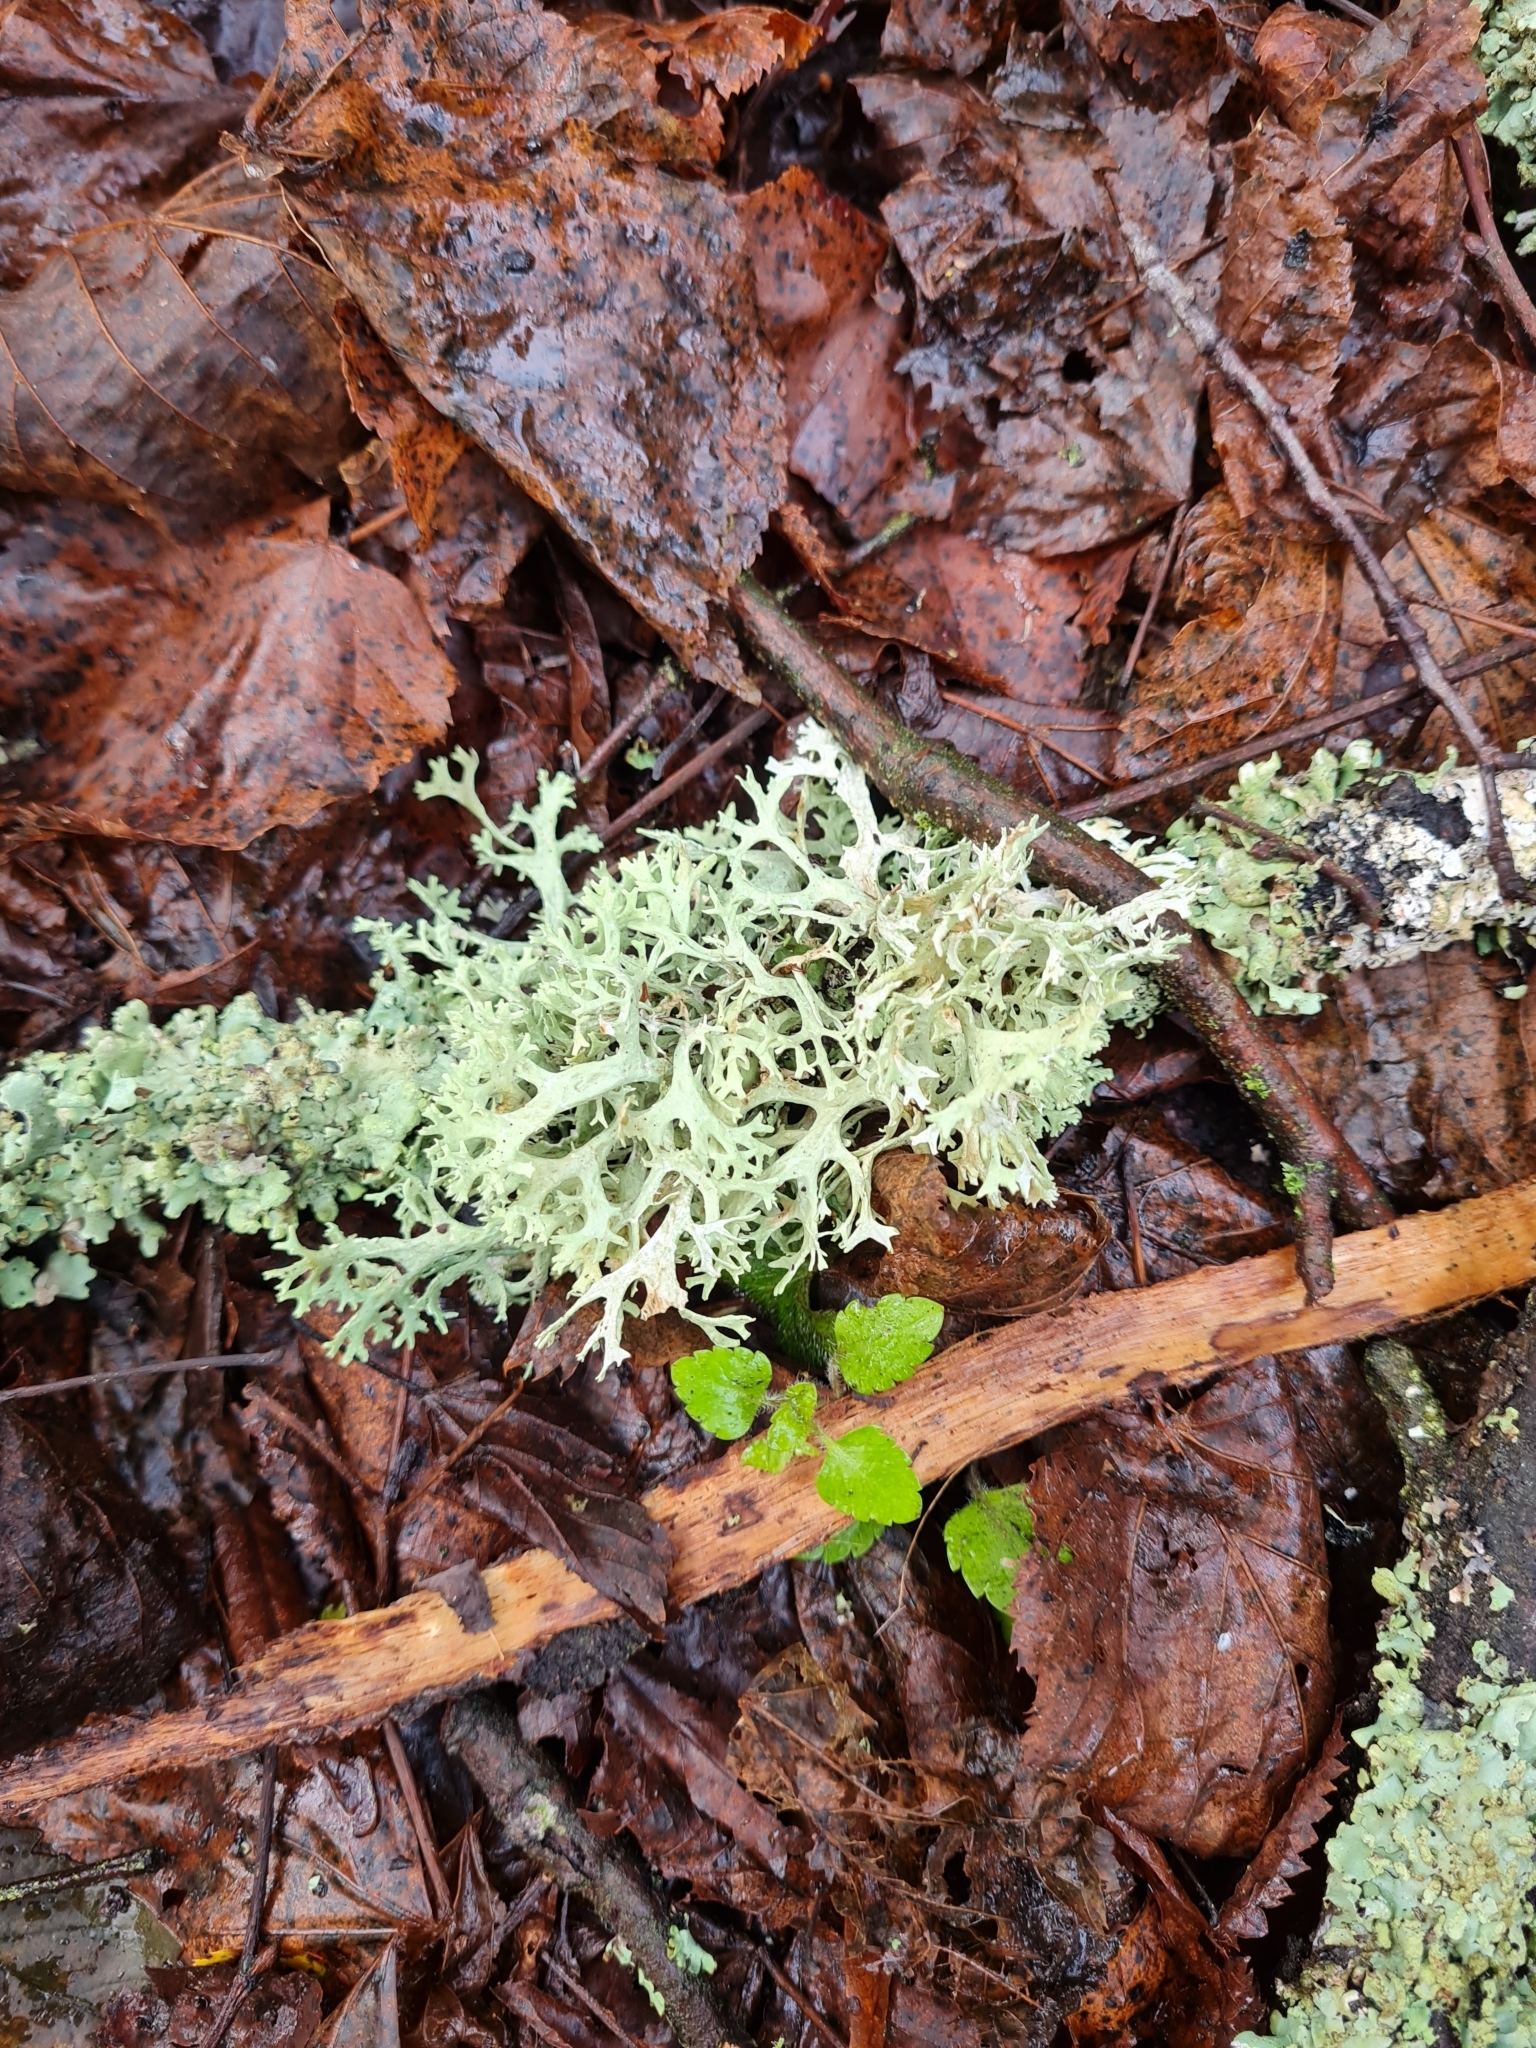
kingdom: Fungi
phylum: Ascomycota
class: Lecanoromycetes
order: Lecanorales
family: Parmeliaceae
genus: Evernia
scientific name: Evernia prunastri
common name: Oak moss
